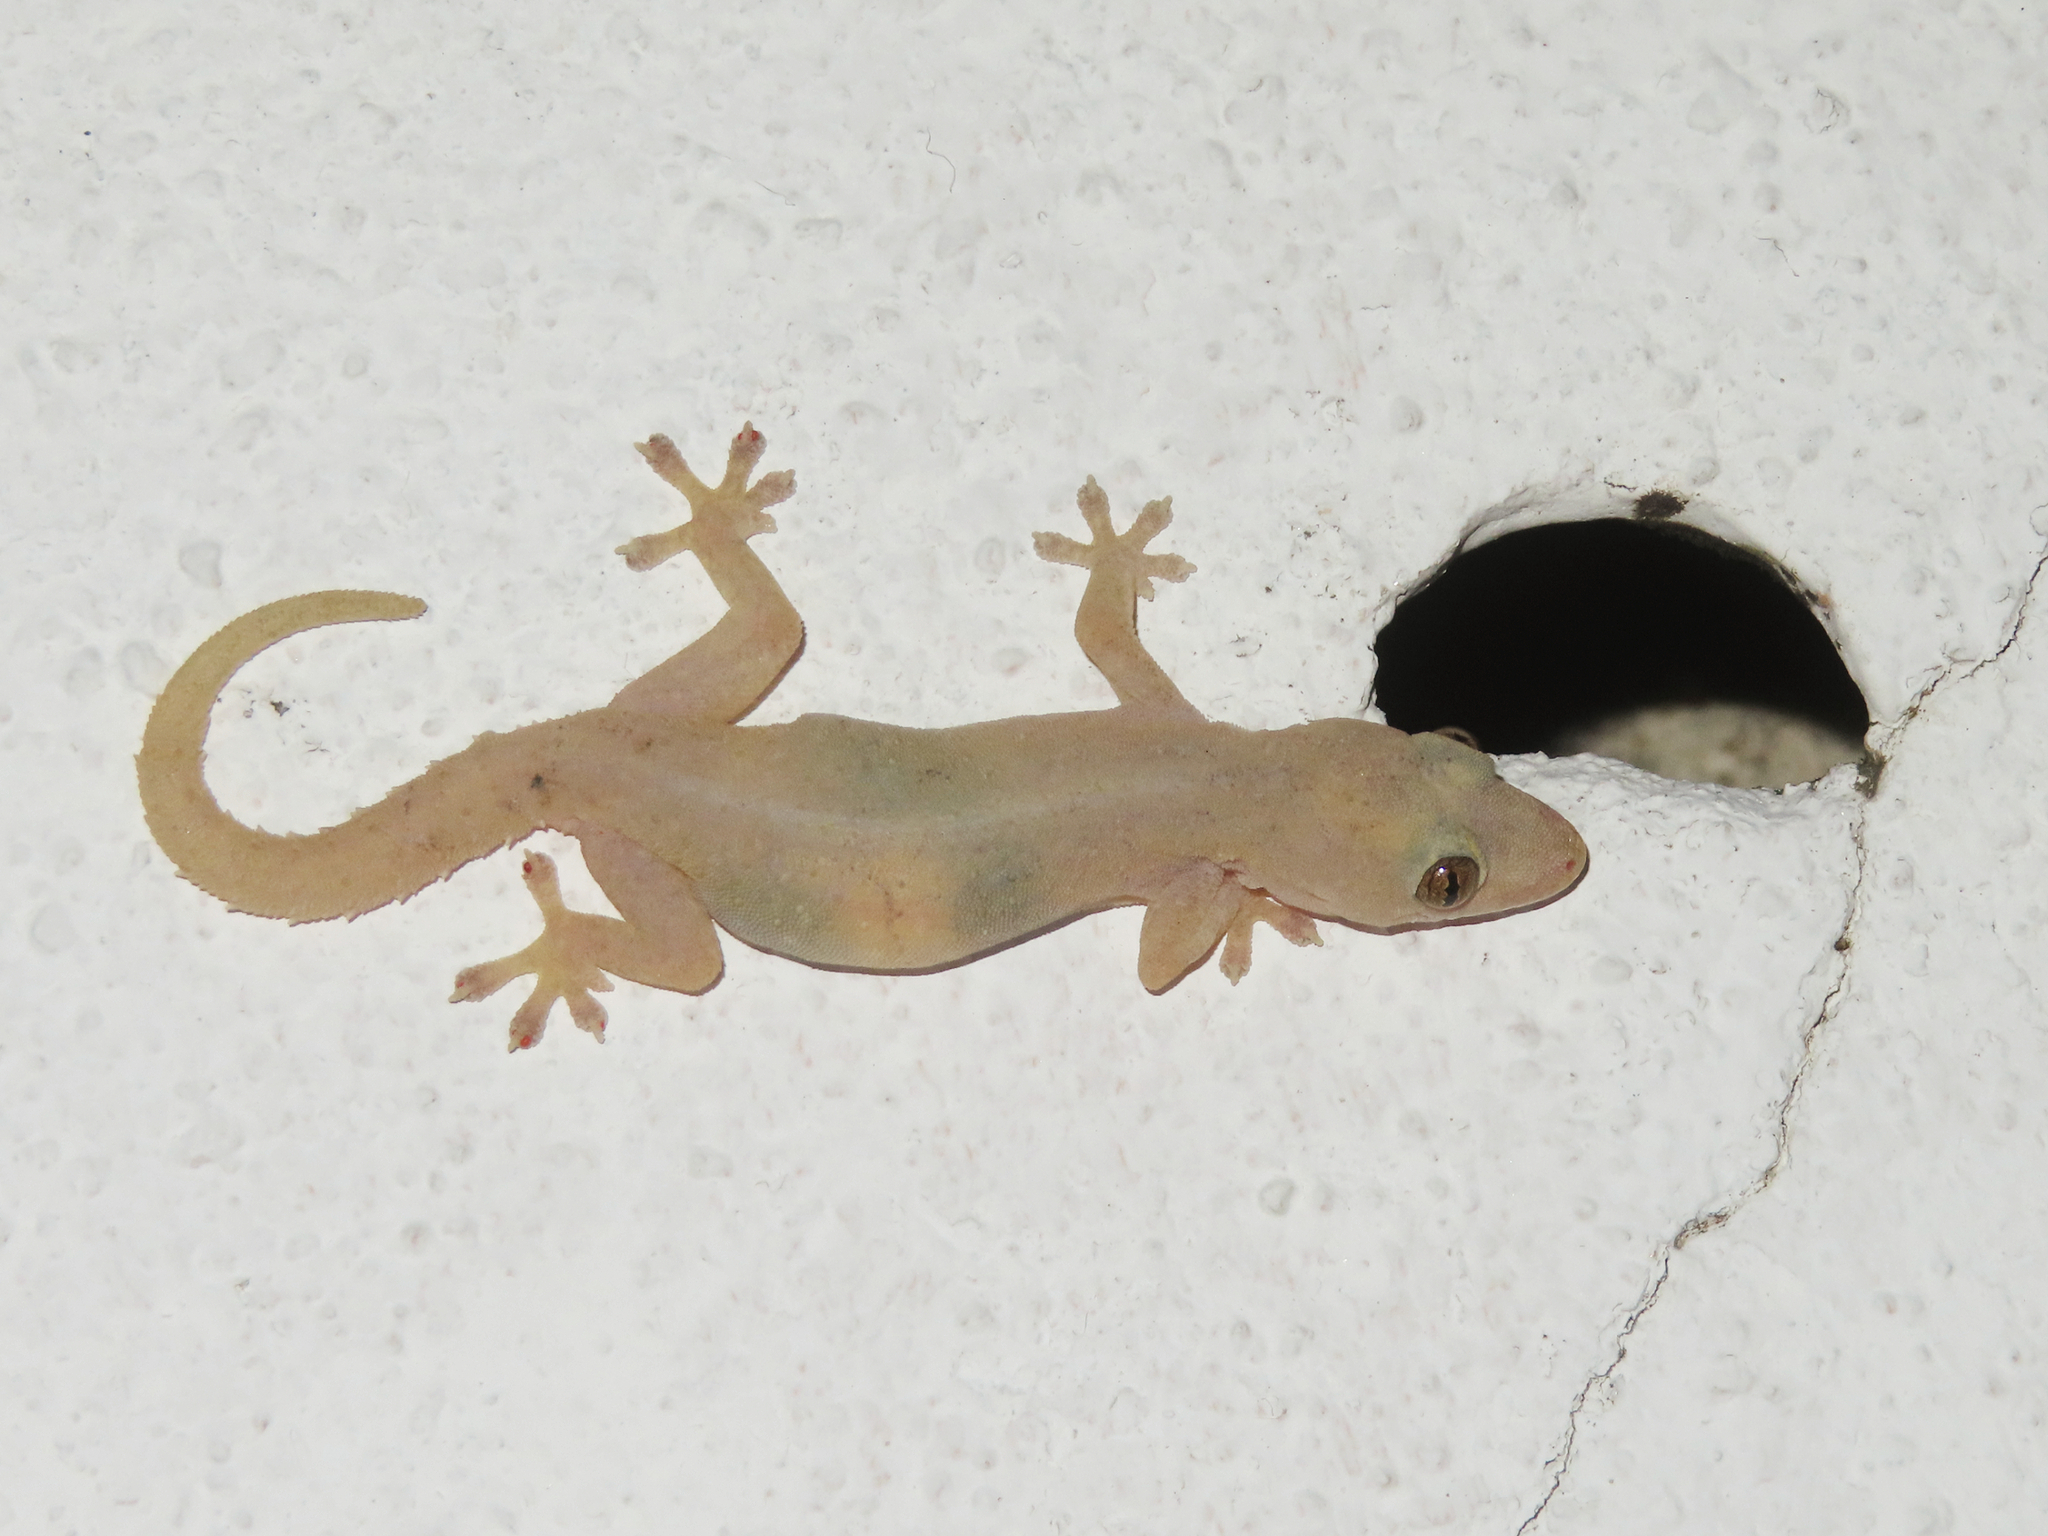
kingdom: Animalia
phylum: Chordata
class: Squamata
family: Gekkonidae
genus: Hemidactylus
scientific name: Hemidactylus frenatus
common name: Common house gecko
